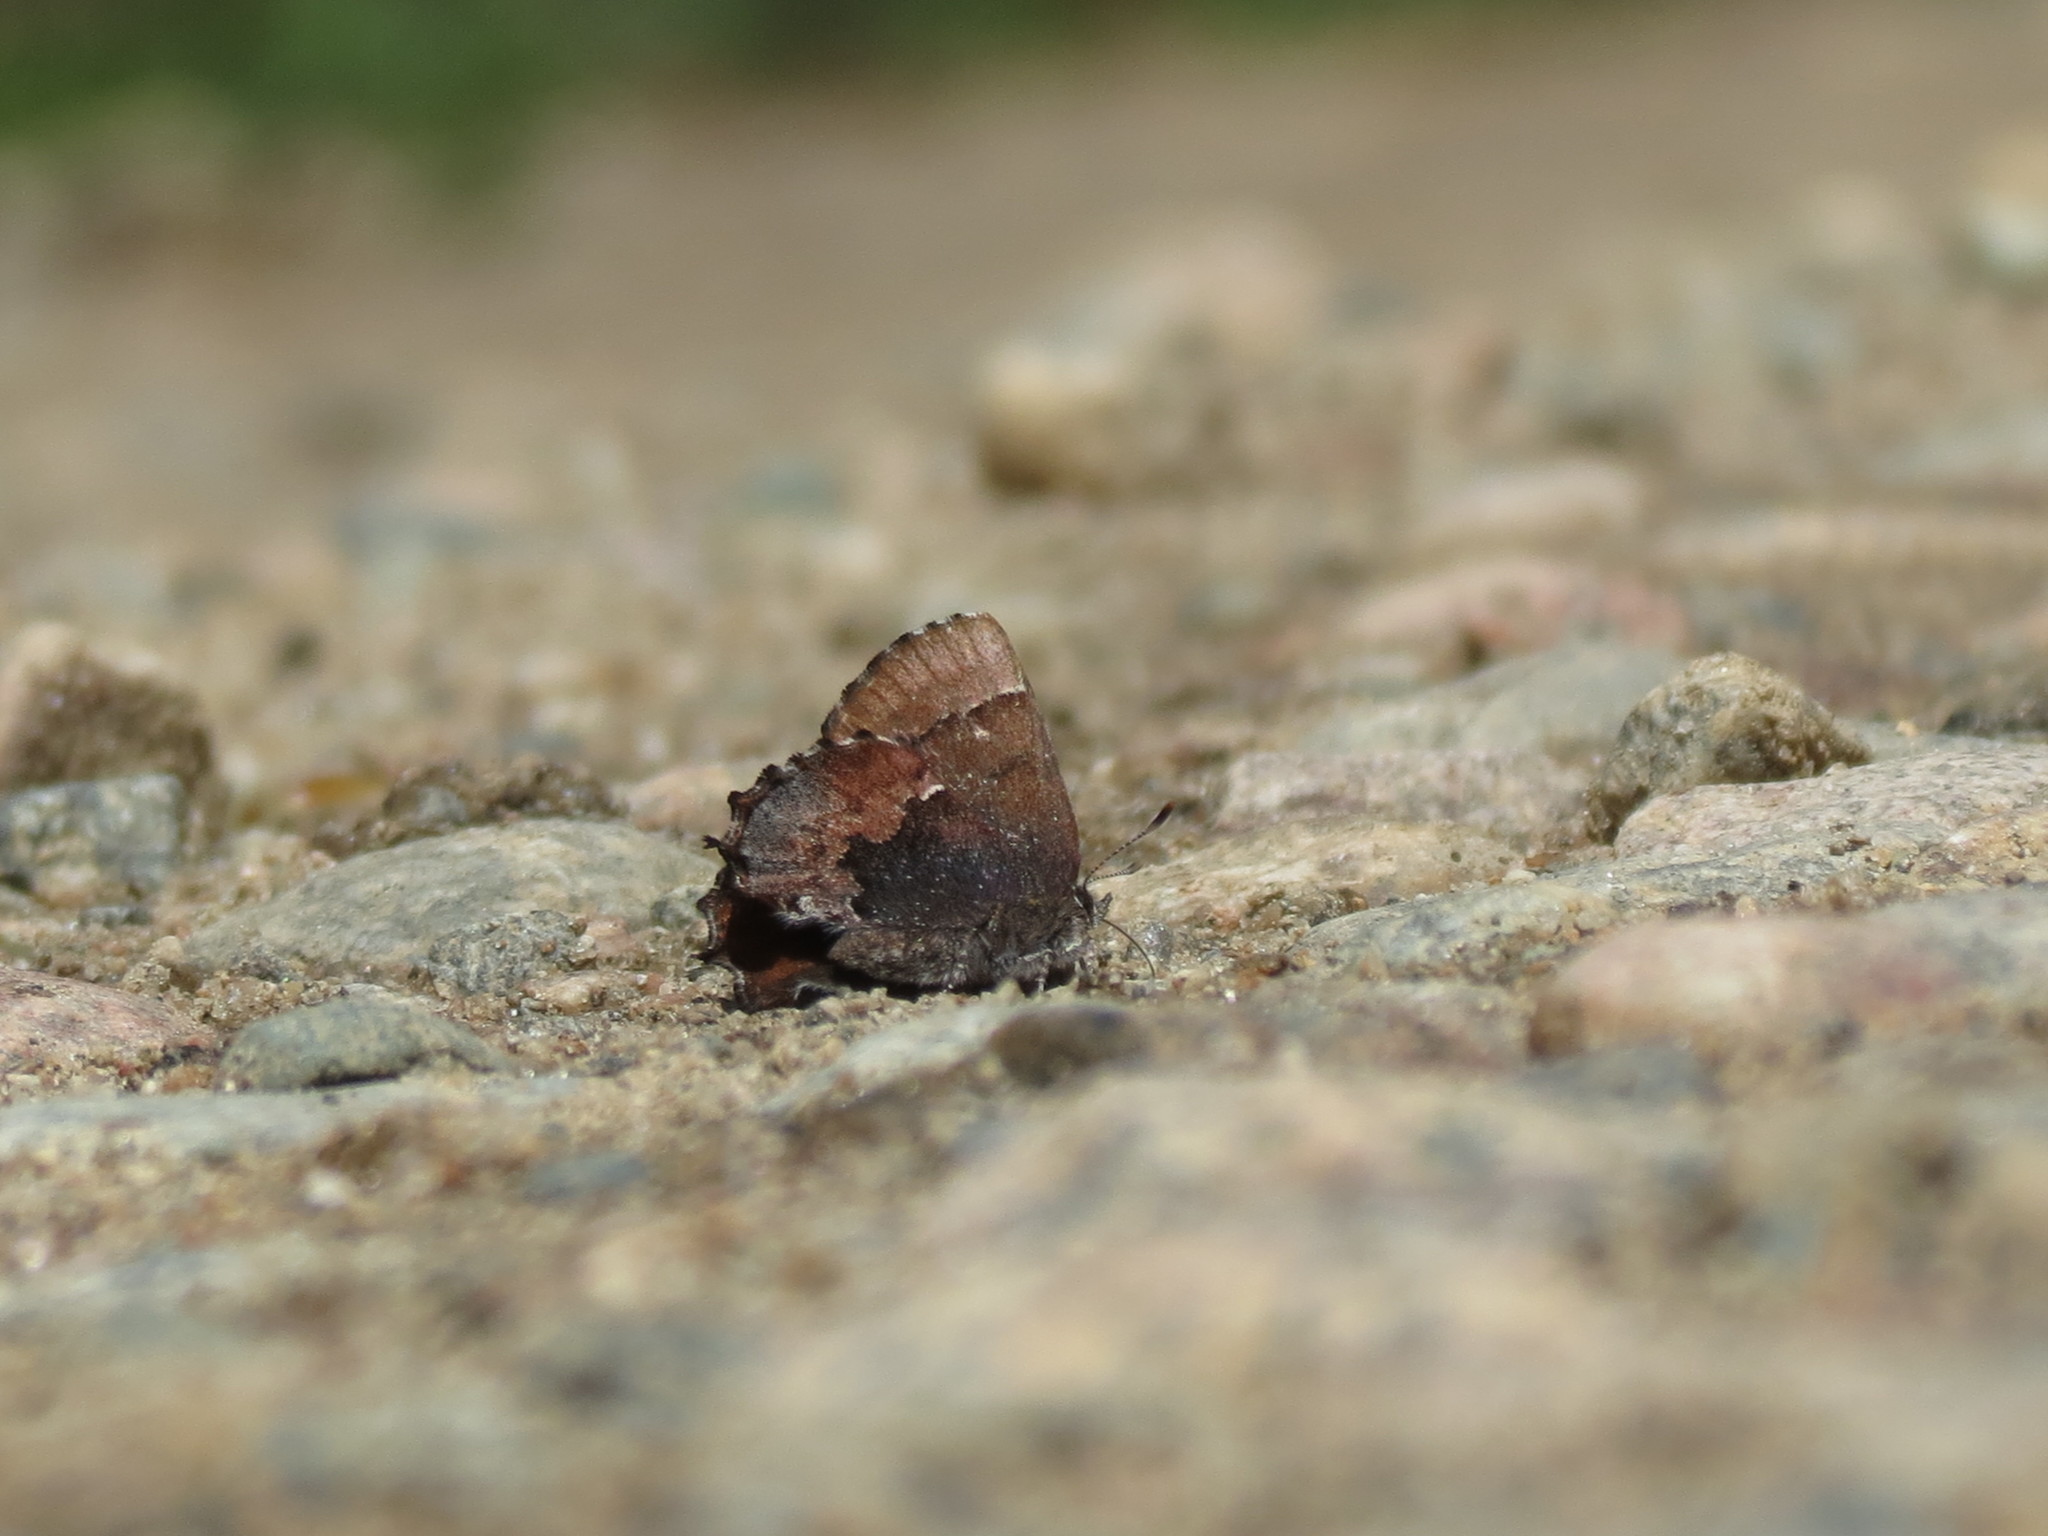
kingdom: Animalia
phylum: Arthropoda
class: Insecta
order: Lepidoptera
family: Lycaenidae
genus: Incisalia
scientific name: Incisalia henrici
